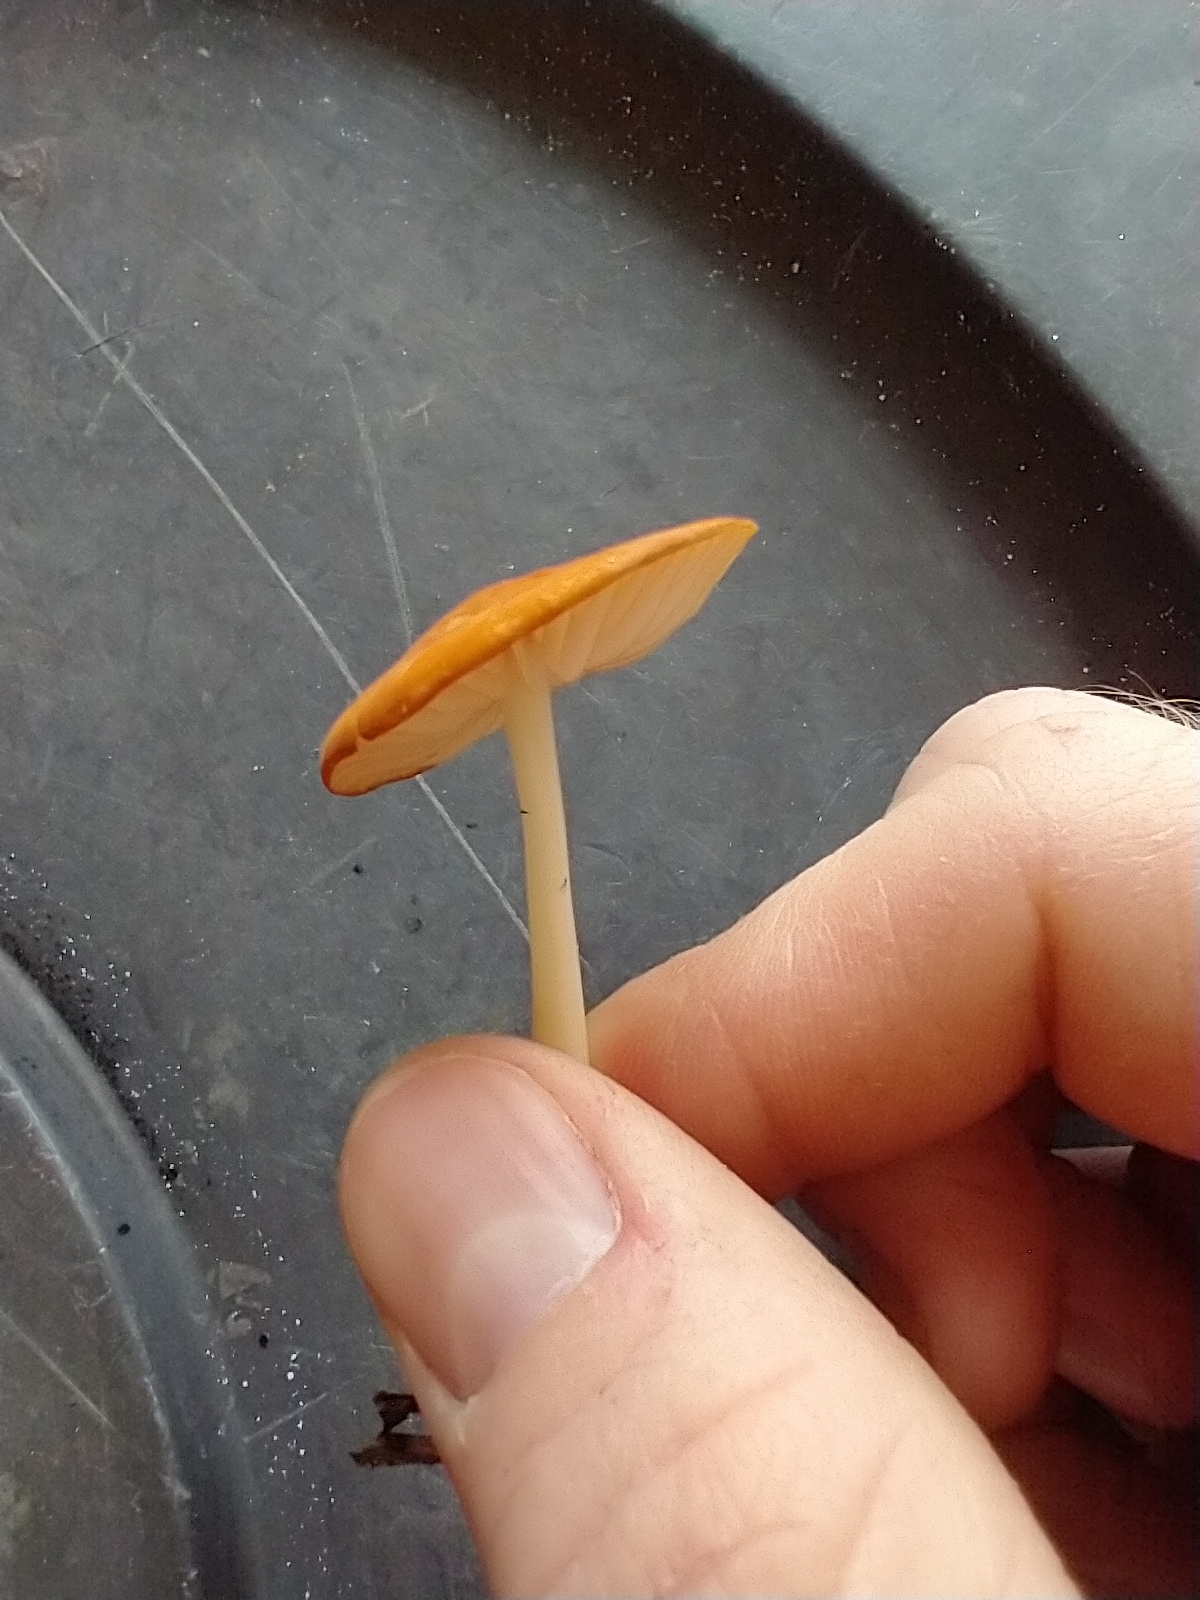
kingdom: Fungi
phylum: Basidiomycota
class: Agaricomycetes
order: Agaricales
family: Marasmiaceae
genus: Marasmius
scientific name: Marasmius vagus
